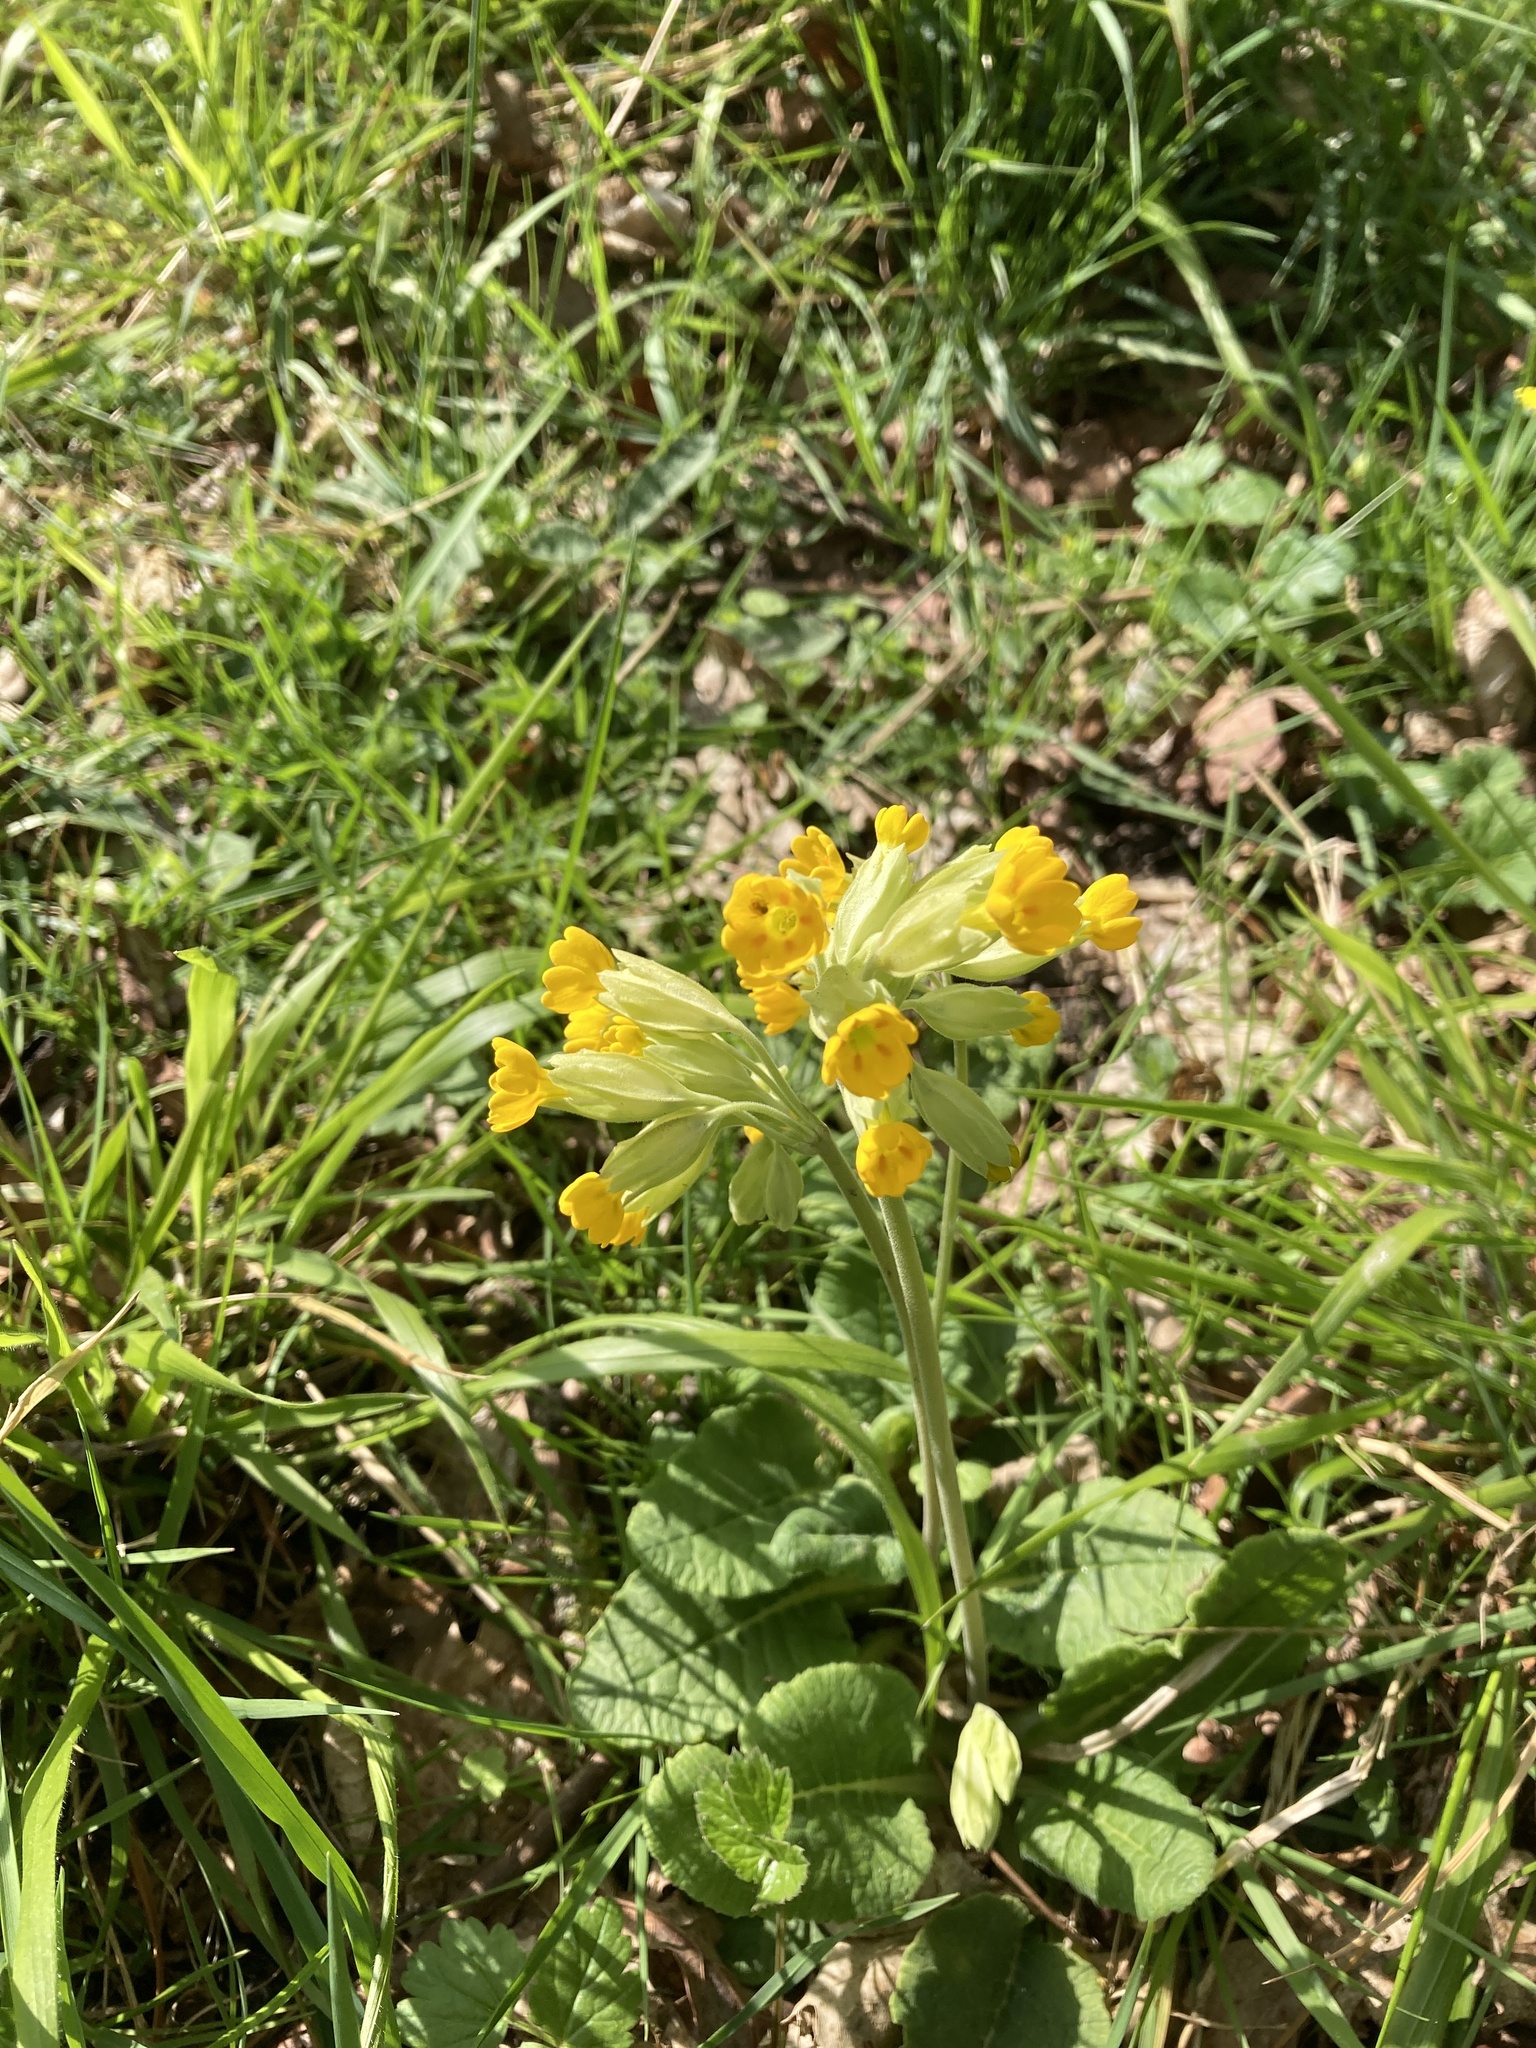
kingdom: Plantae
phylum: Tracheophyta
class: Magnoliopsida
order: Ericales
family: Primulaceae
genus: Primula
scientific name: Primula veris
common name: Cowslip
